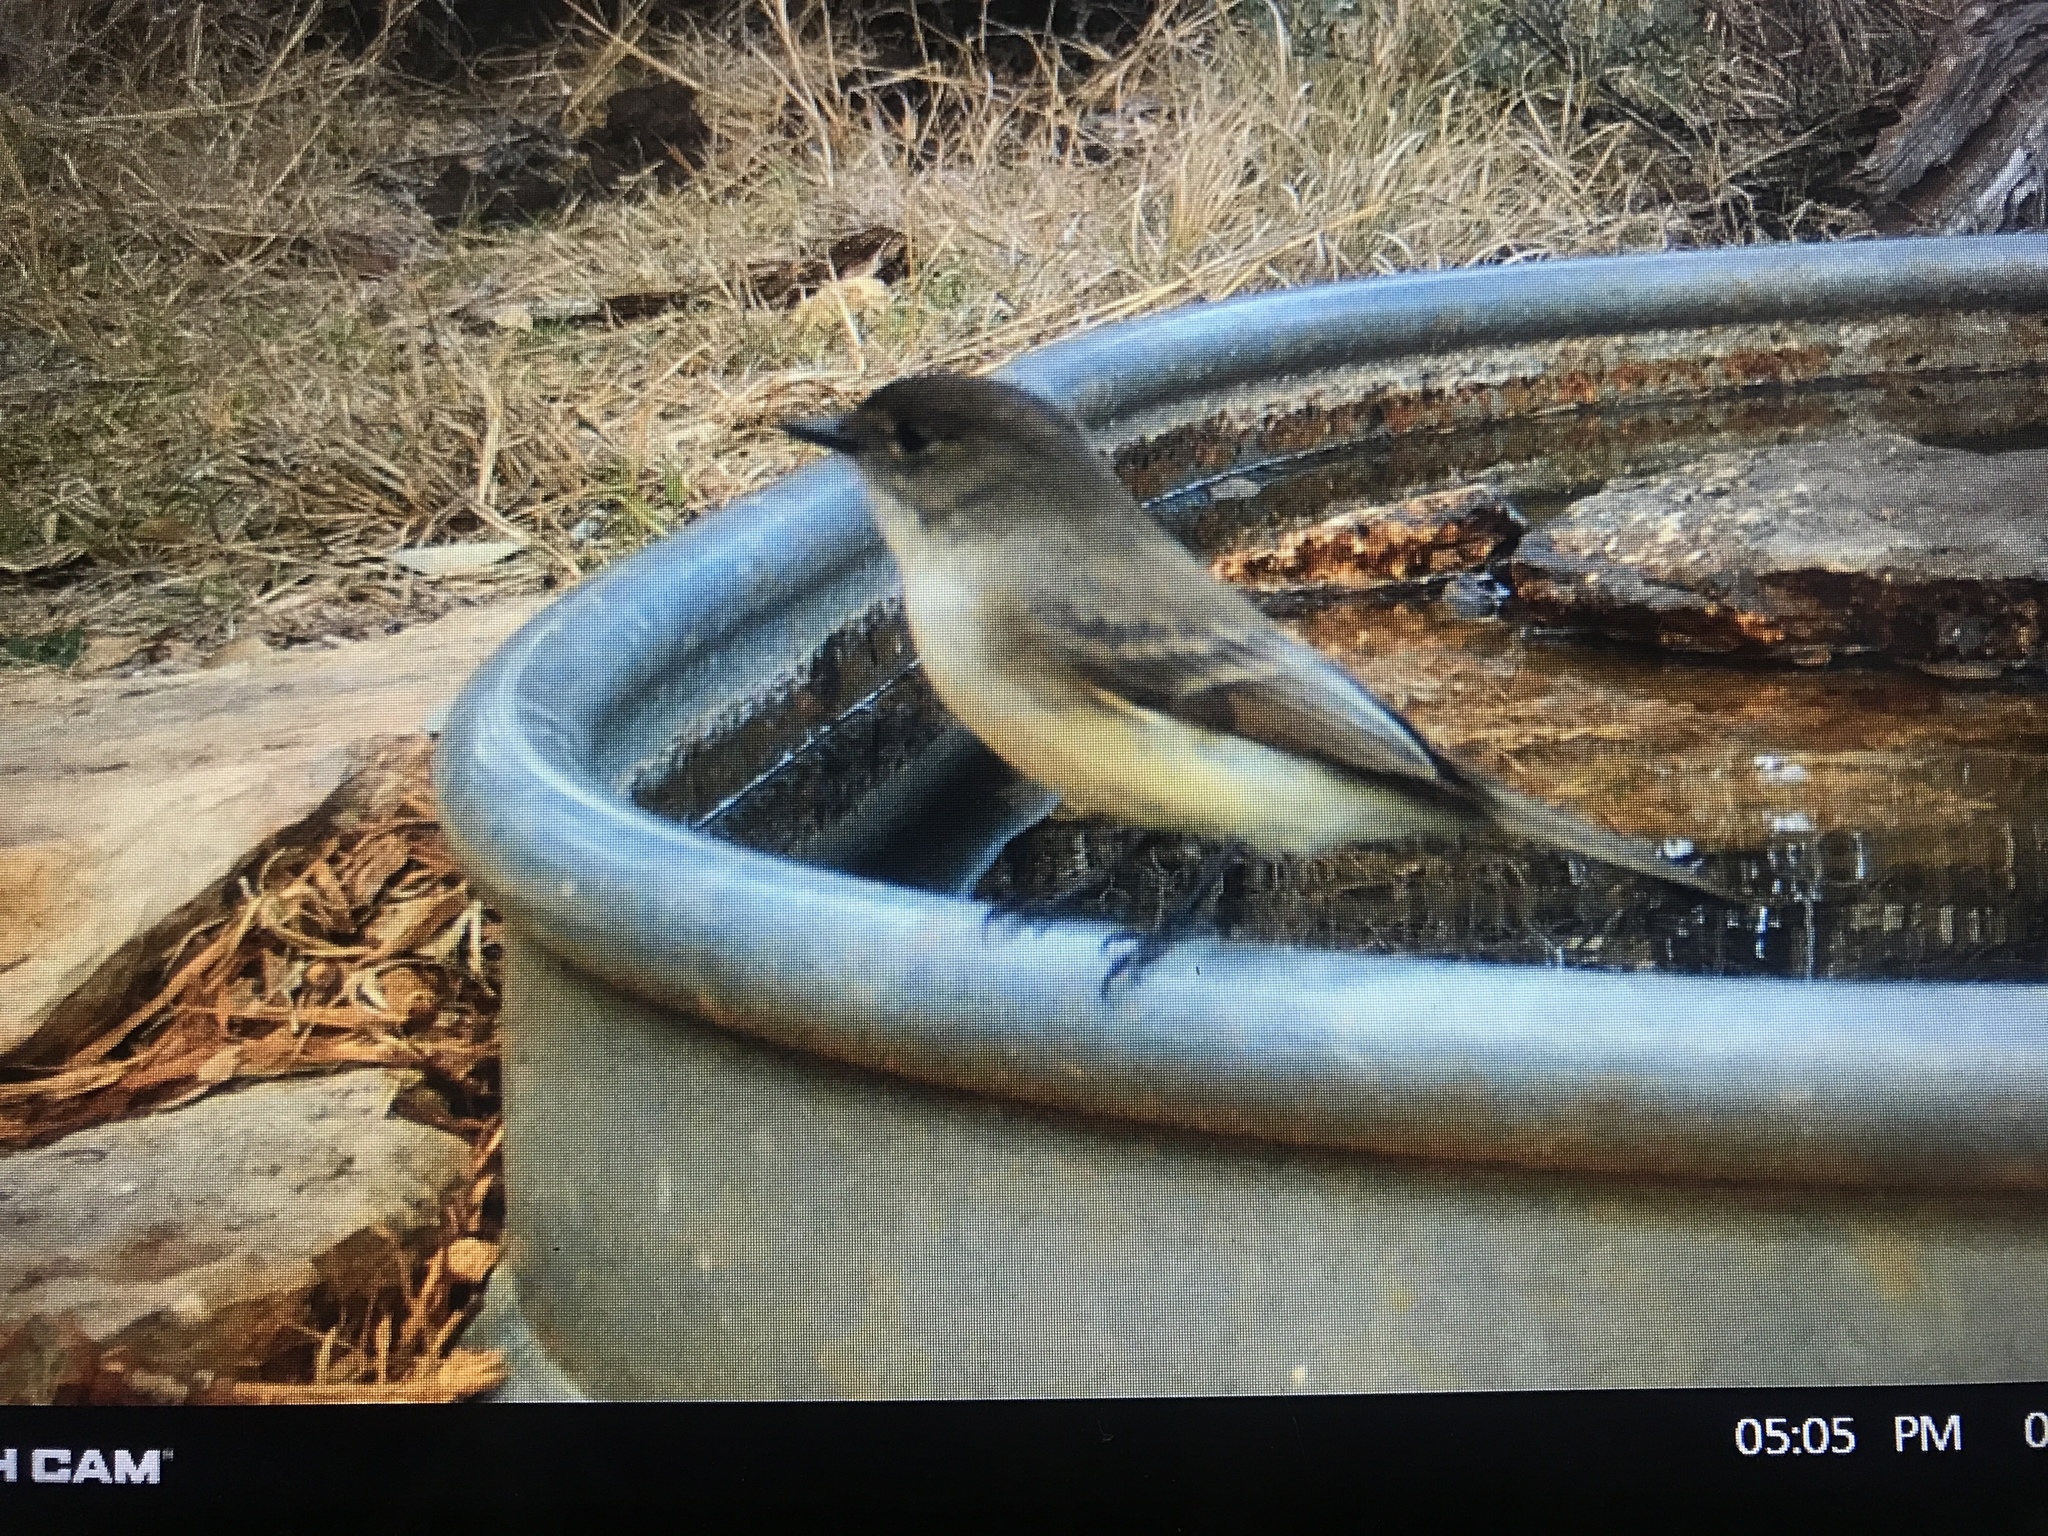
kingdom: Animalia
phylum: Chordata
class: Aves
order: Passeriformes
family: Tyrannidae
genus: Sayornis
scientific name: Sayornis phoebe
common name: Eastern phoebe
